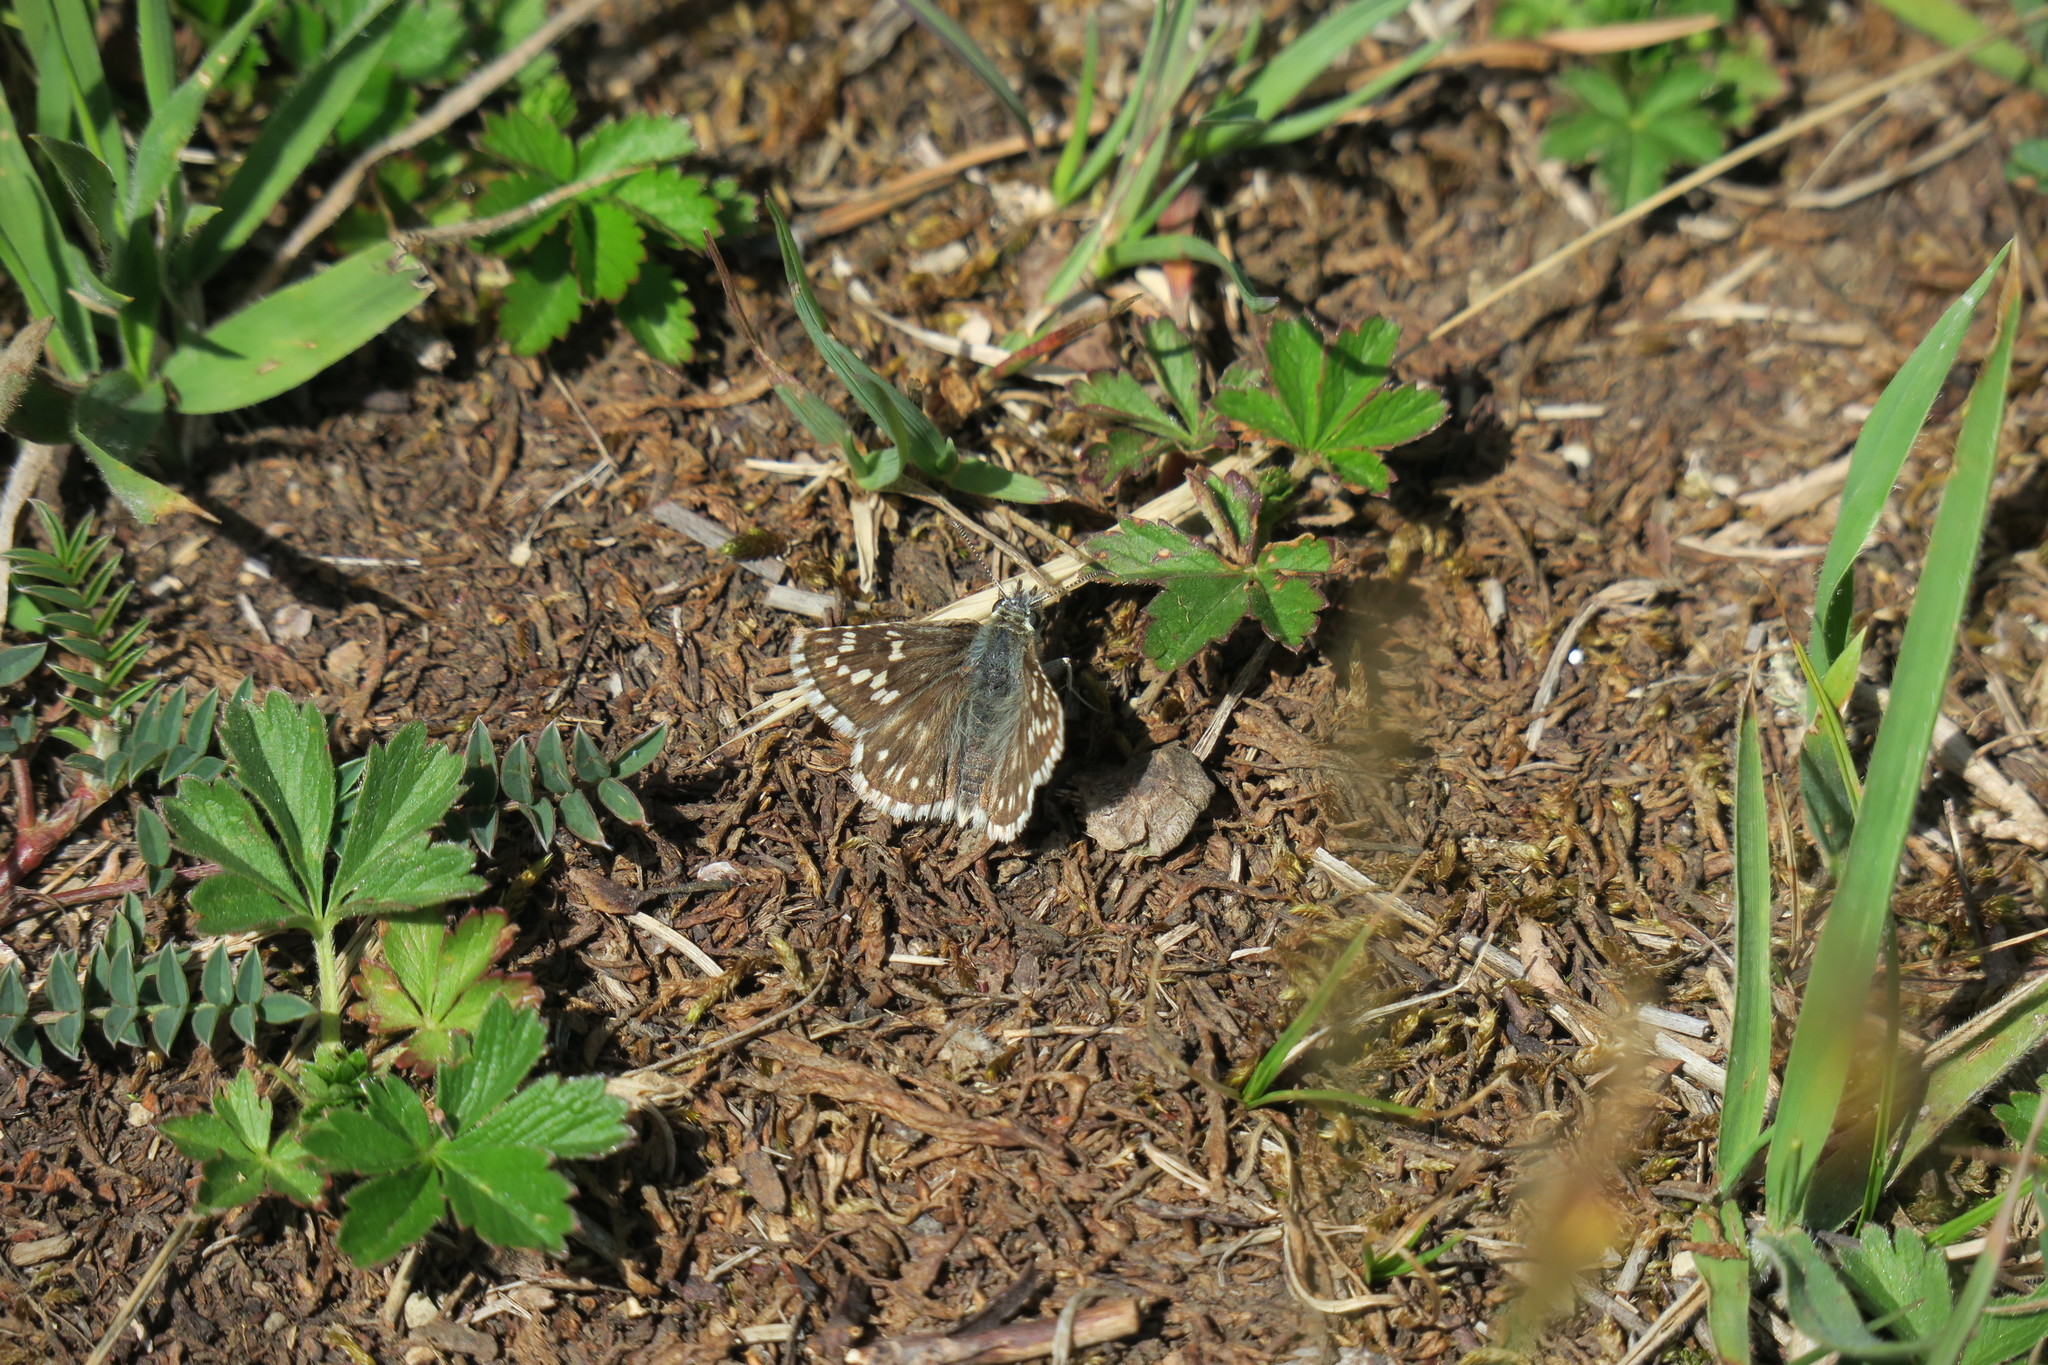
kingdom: Animalia
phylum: Arthropoda
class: Insecta
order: Lepidoptera
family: Hesperiidae
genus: Pyrgus
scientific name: Pyrgus fritillarius
